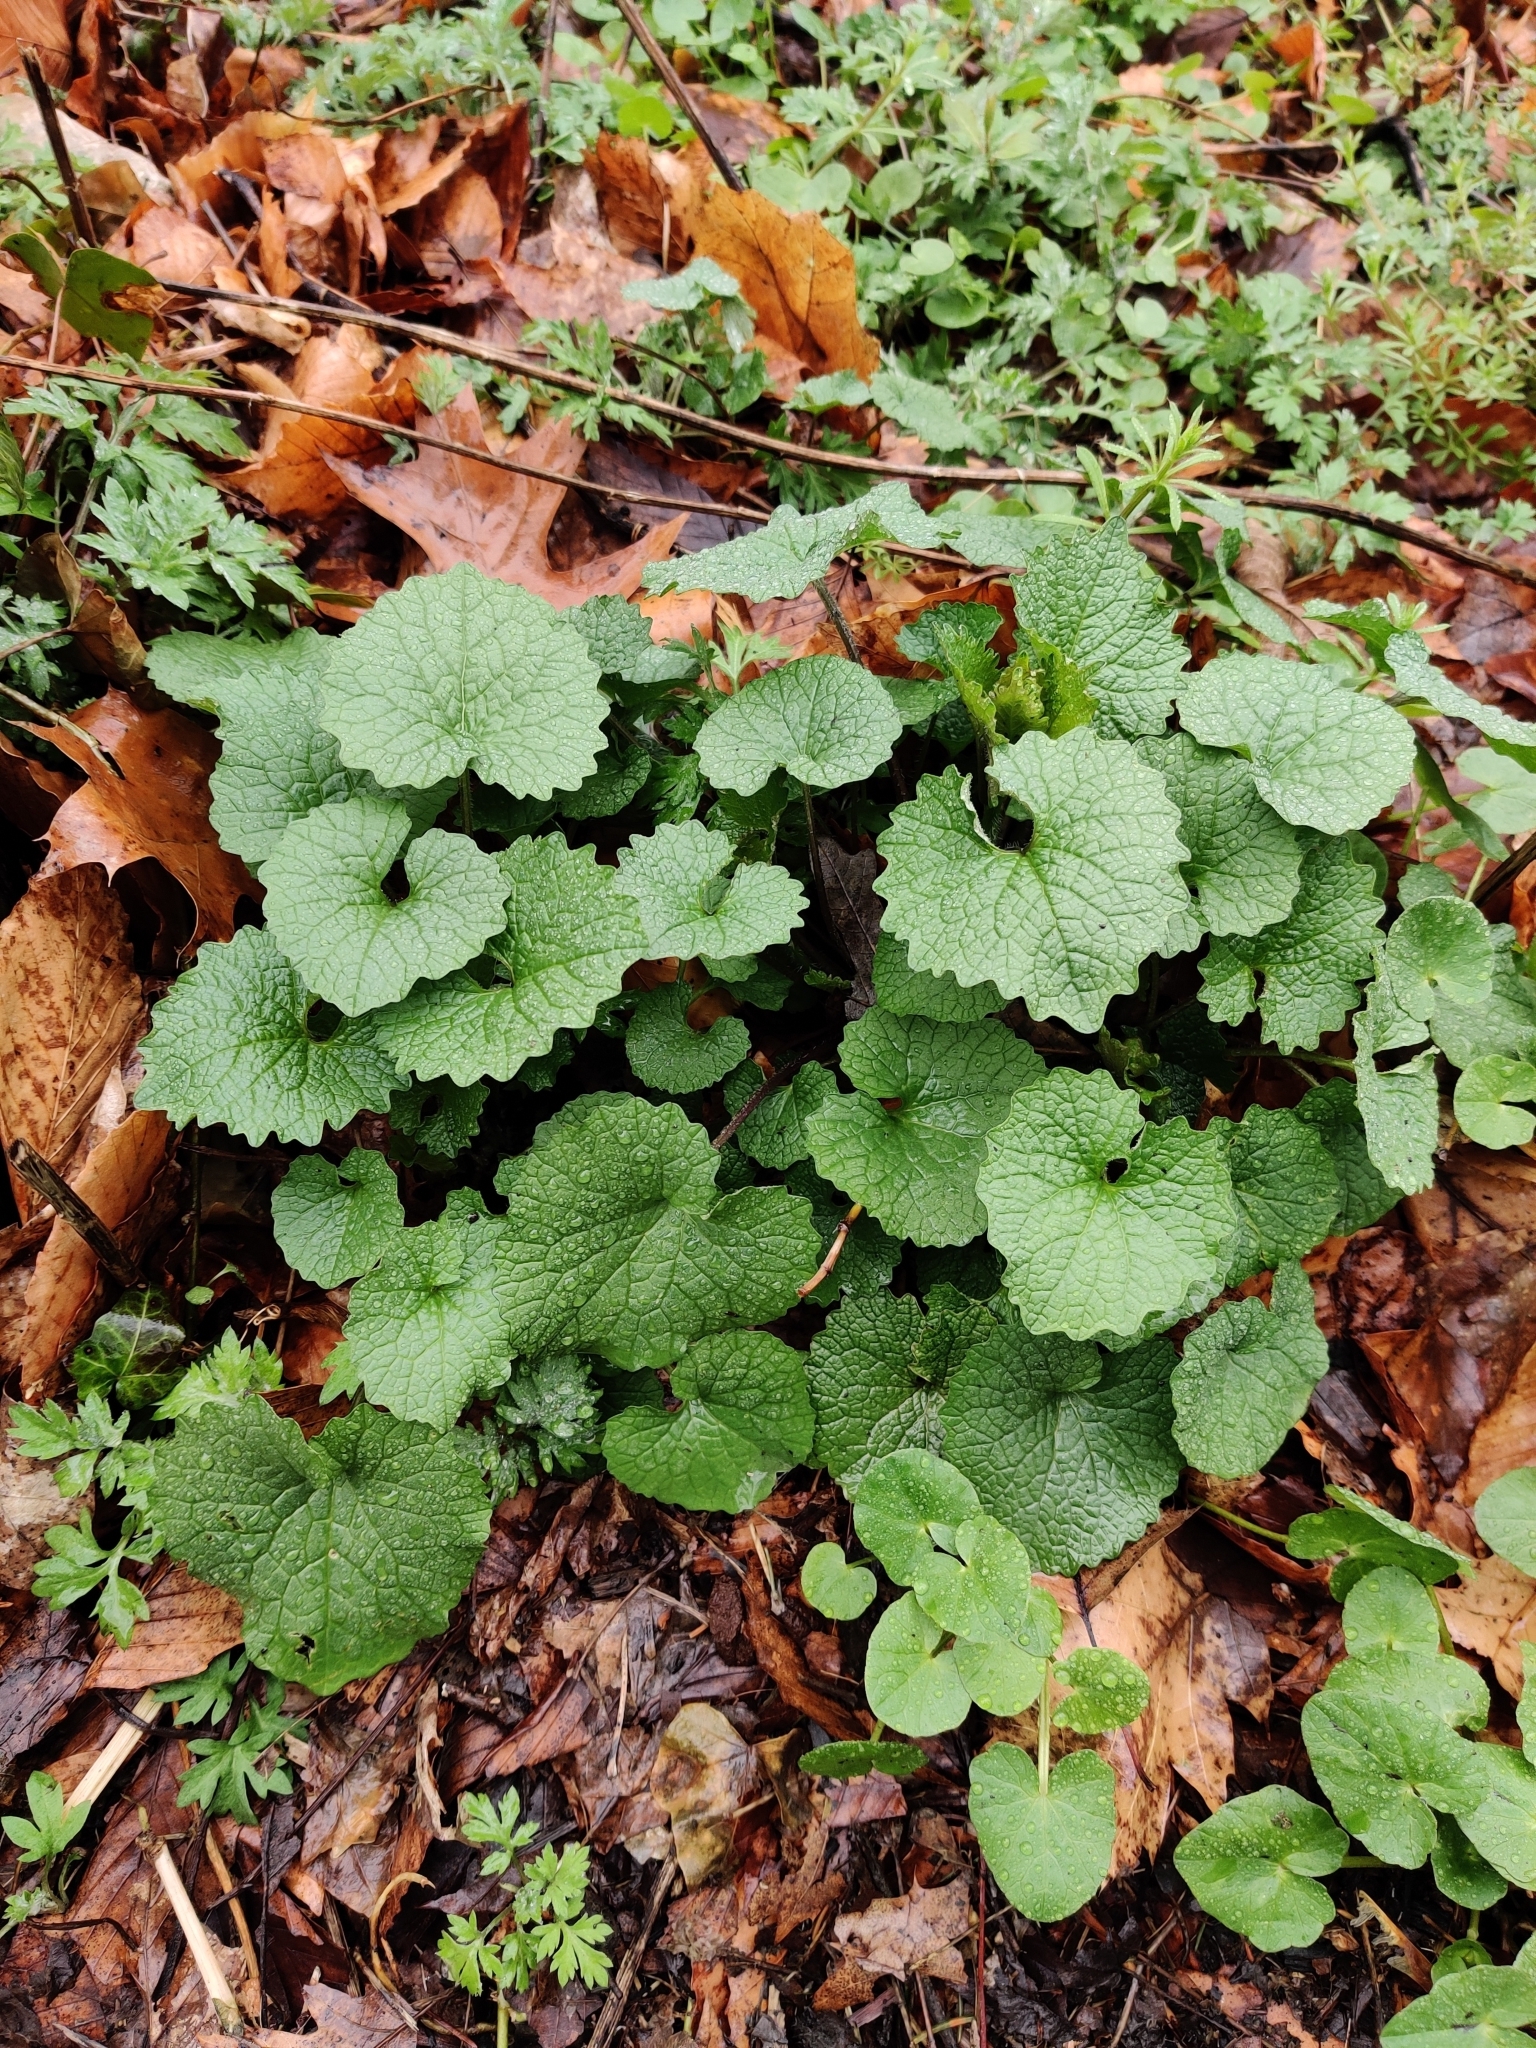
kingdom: Plantae
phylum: Tracheophyta
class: Magnoliopsida
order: Brassicales
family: Brassicaceae
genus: Alliaria
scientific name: Alliaria petiolata
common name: Garlic mustard
